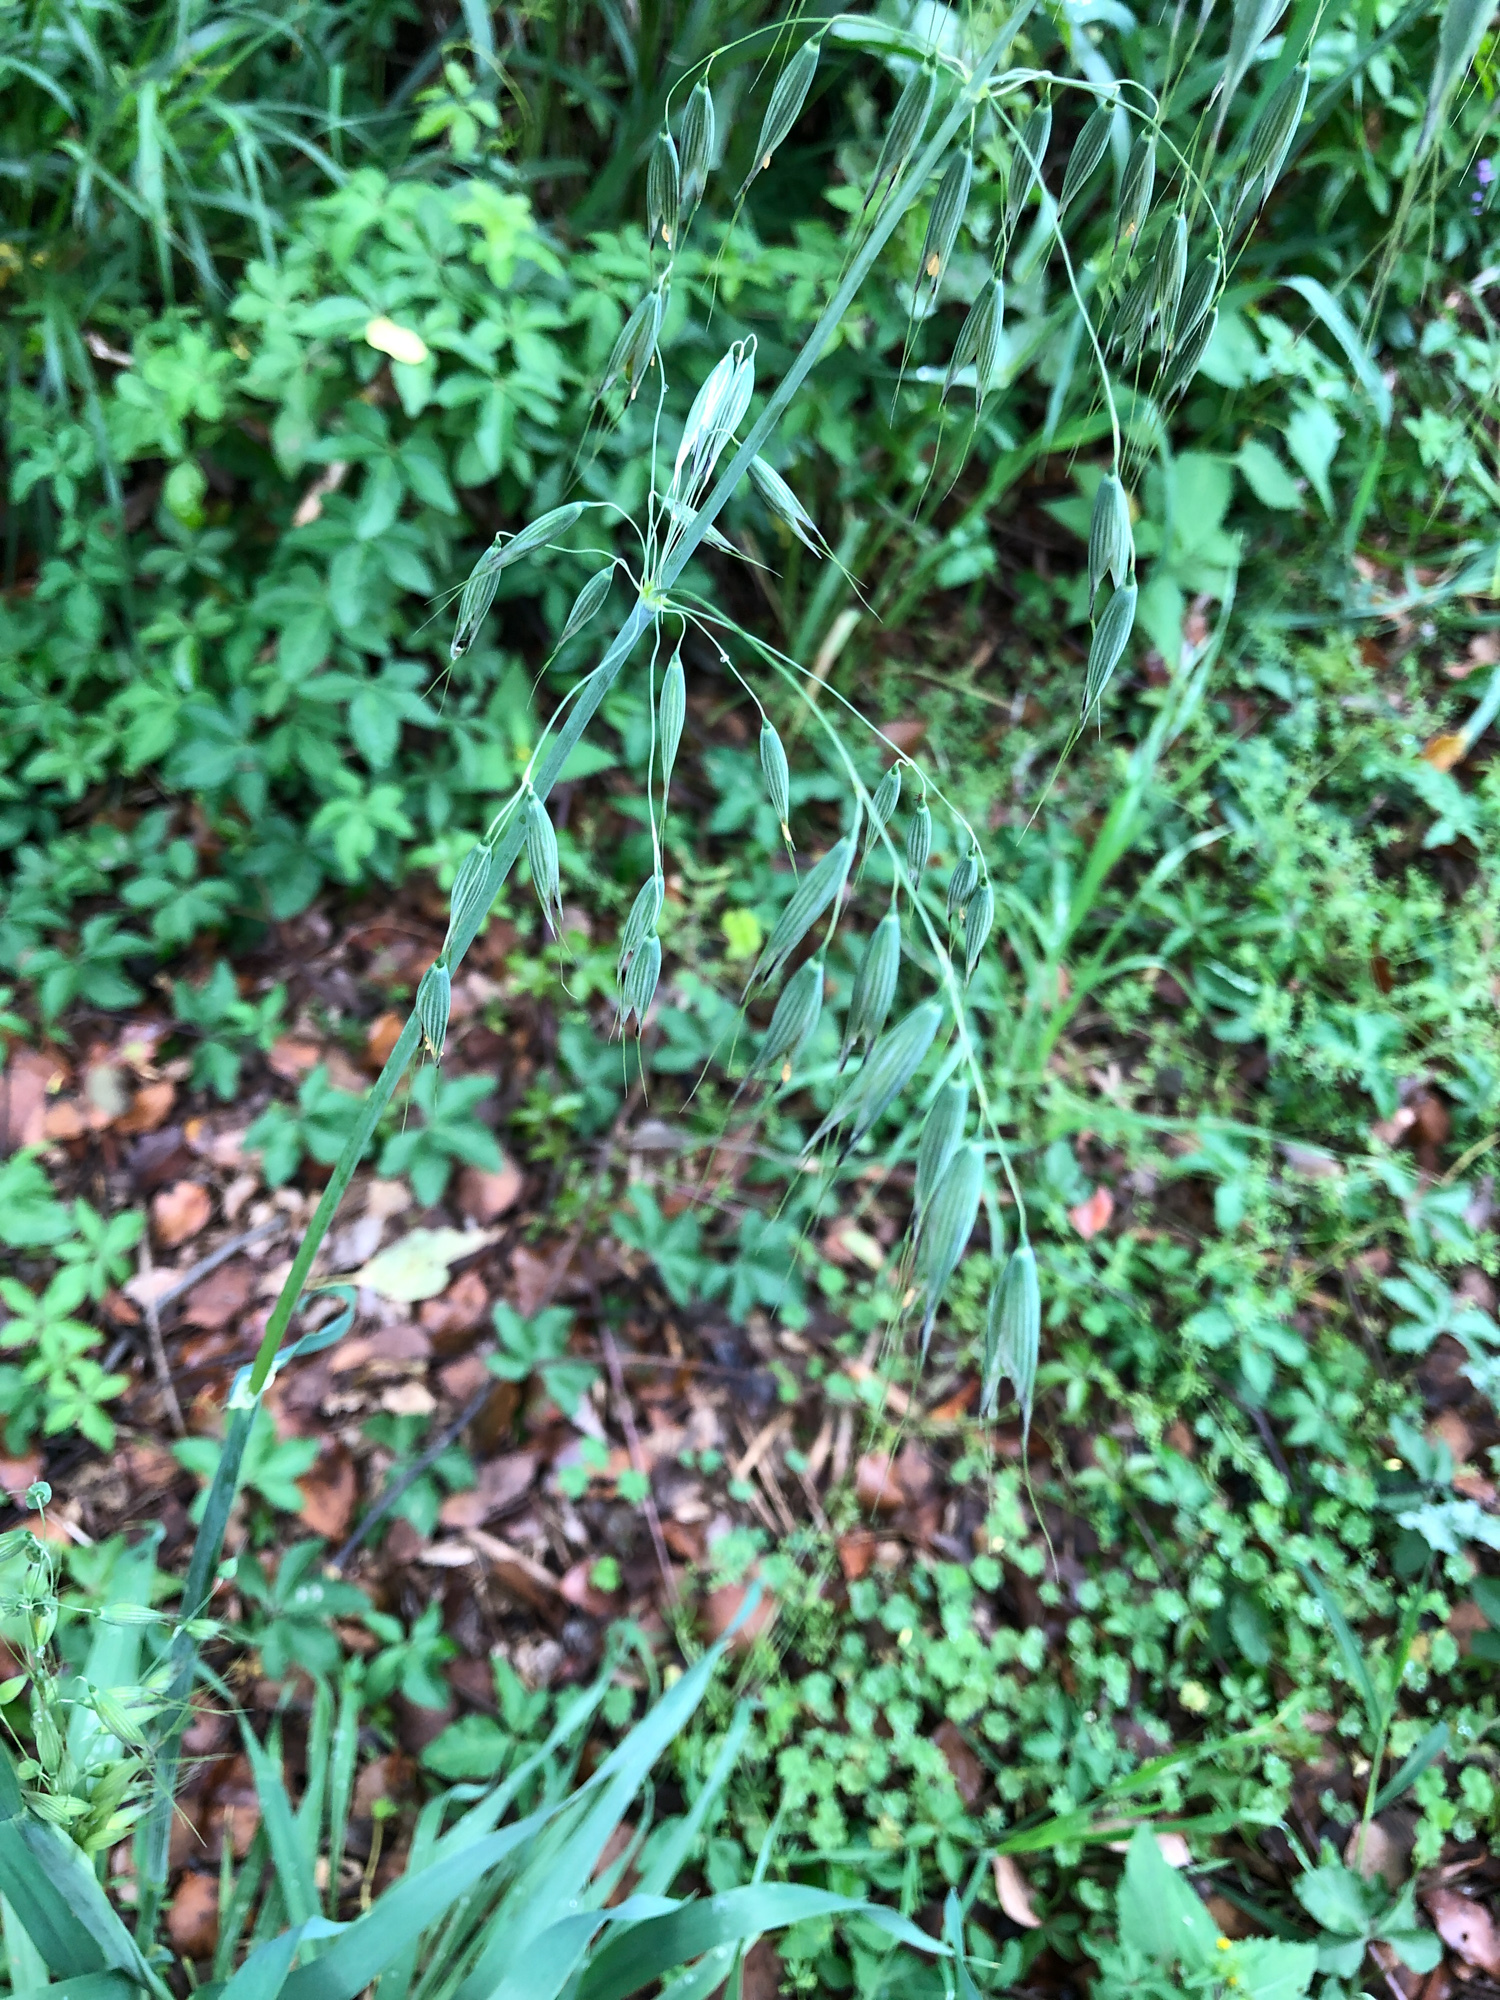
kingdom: Plantae
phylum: Tracheophyta
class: Liliopsida
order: Poales
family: Poaceae
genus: Avena
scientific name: Avena fatua
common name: Wild oat
